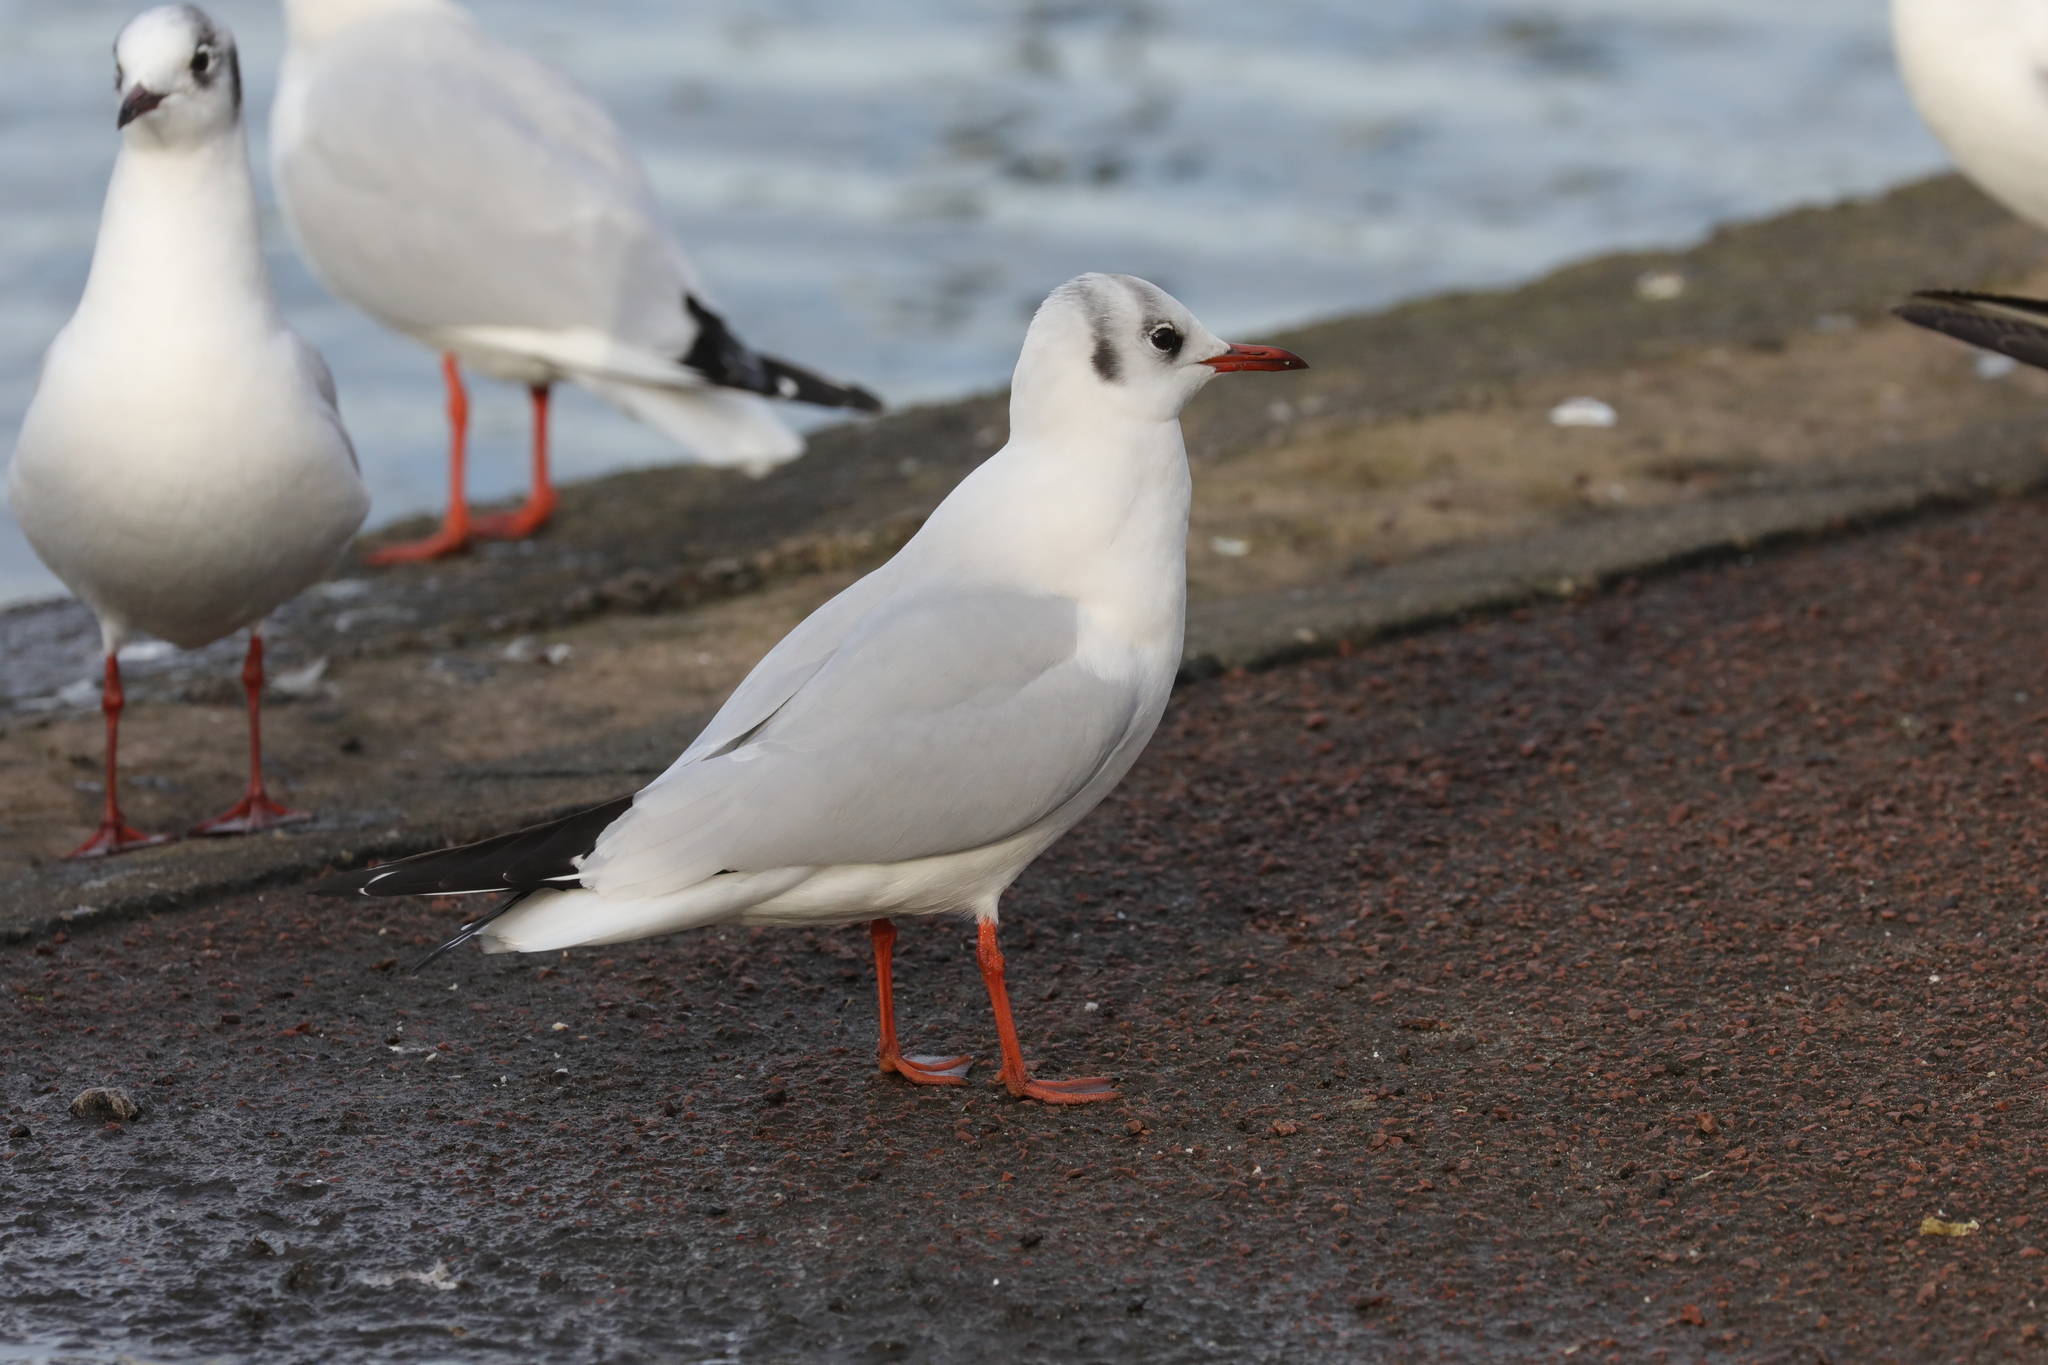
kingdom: Animalia
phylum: Chordata
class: Aves
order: Charadriiformes
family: Laridae
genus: Chroicocephalus
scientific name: Chroicocephalus ridibundus
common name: Black-headed gull
